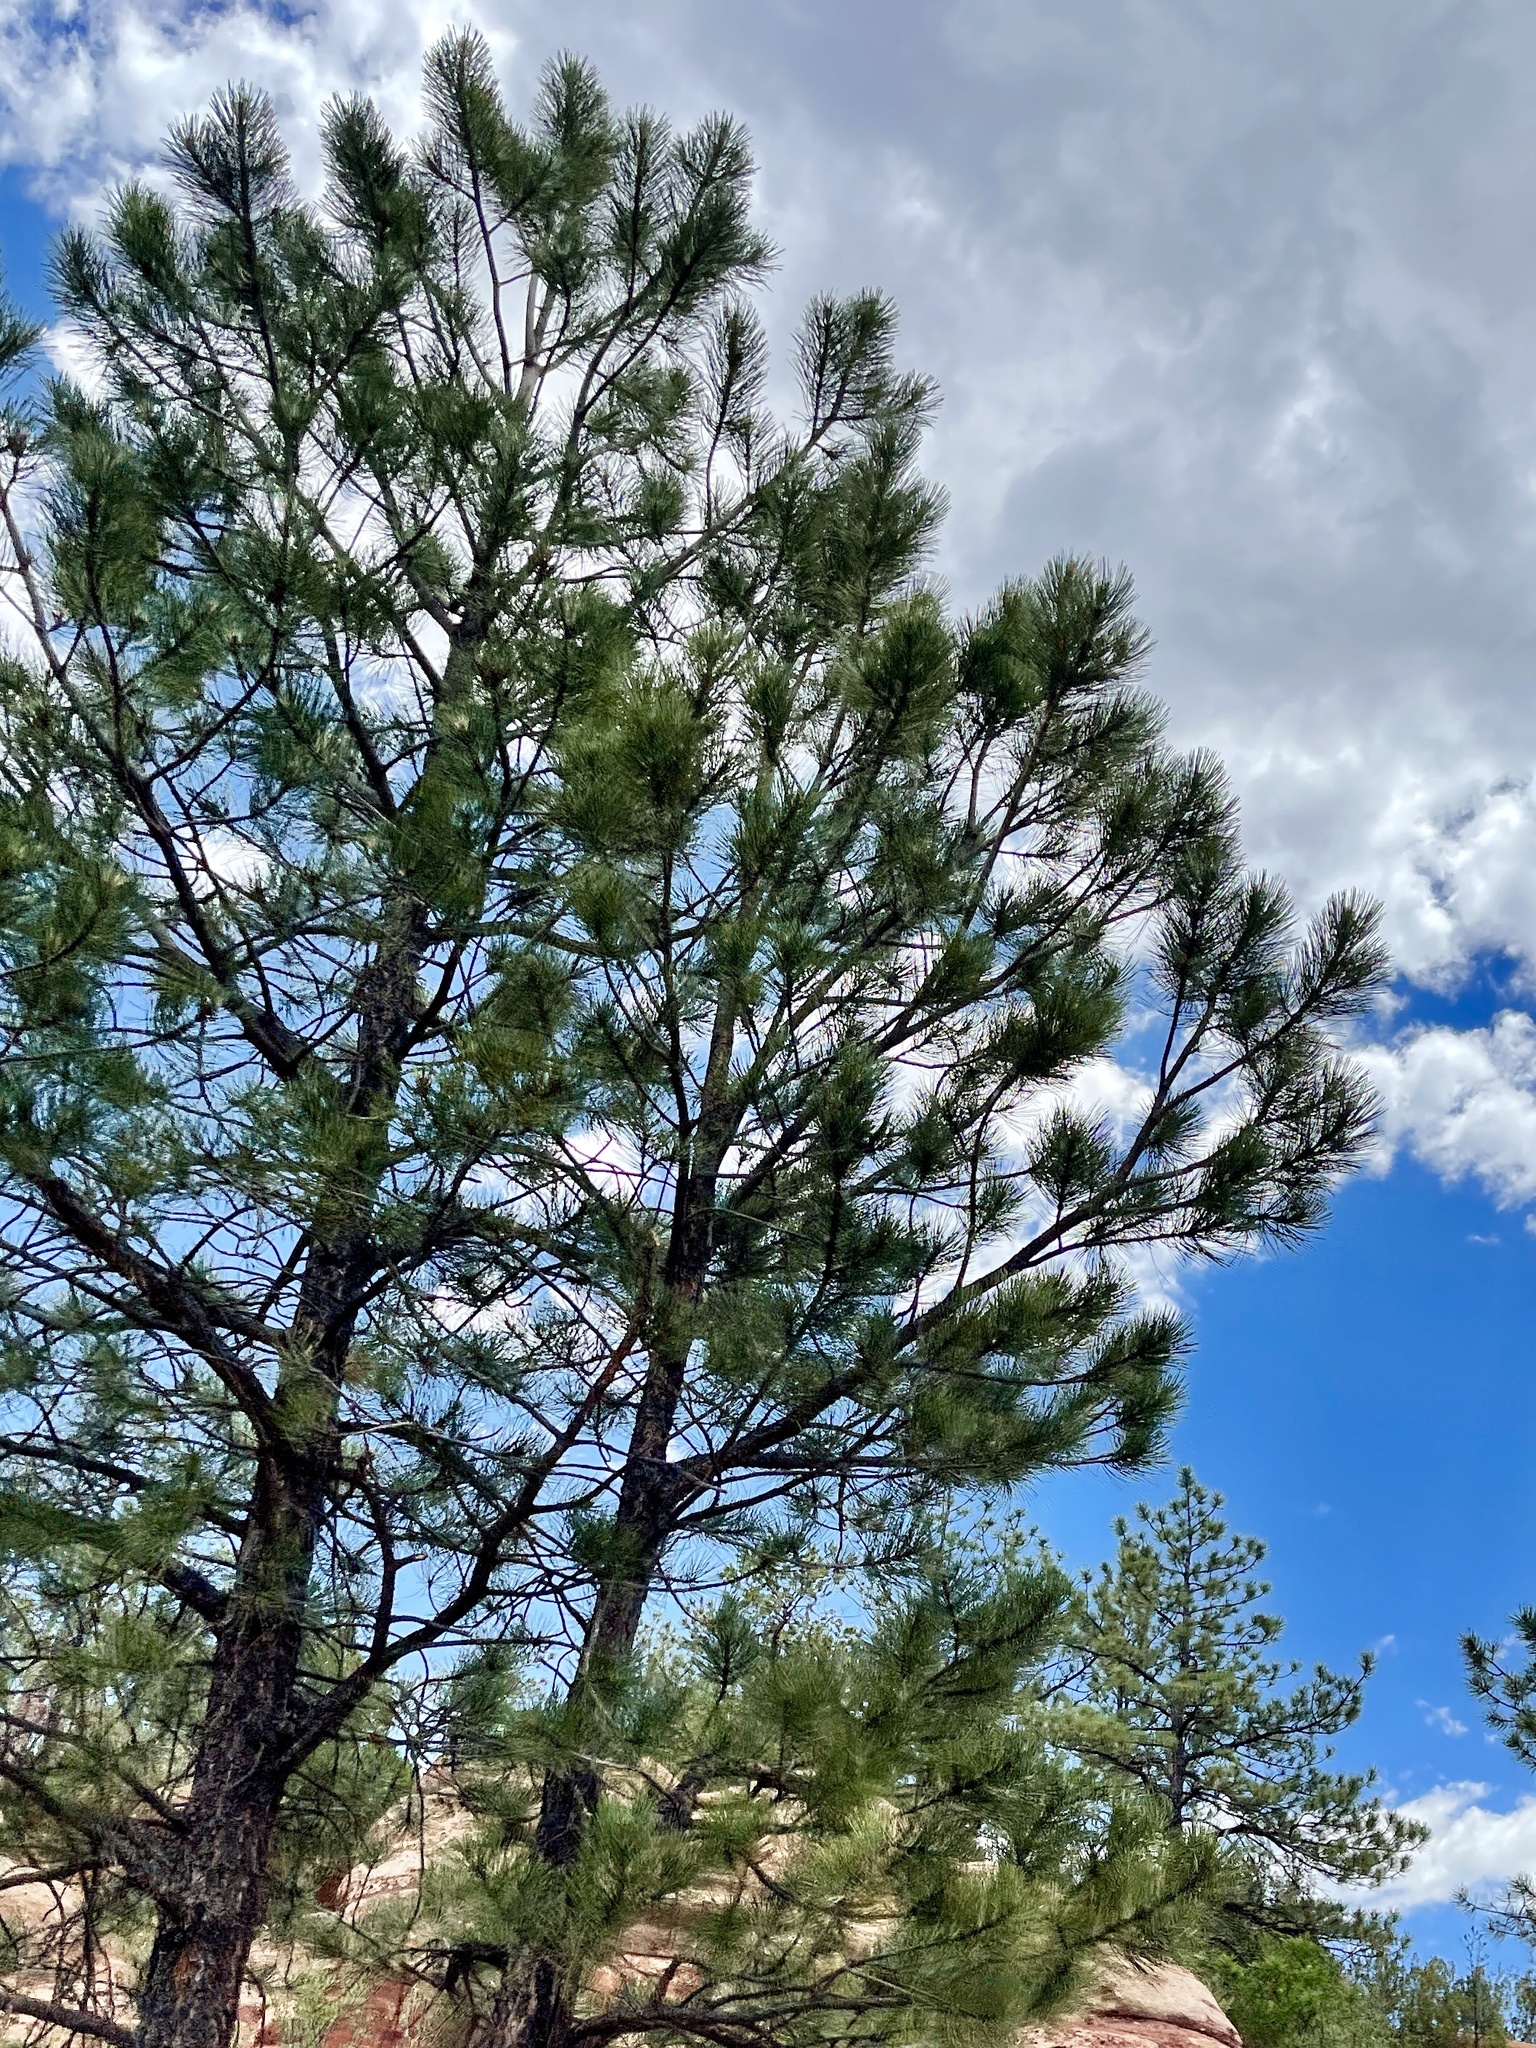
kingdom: Plantae
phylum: Tracheophyta
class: Pinopsida
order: Pinales
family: Pinaceae
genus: Pinus
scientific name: Pinus ponderosa
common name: Western yellow-pine
